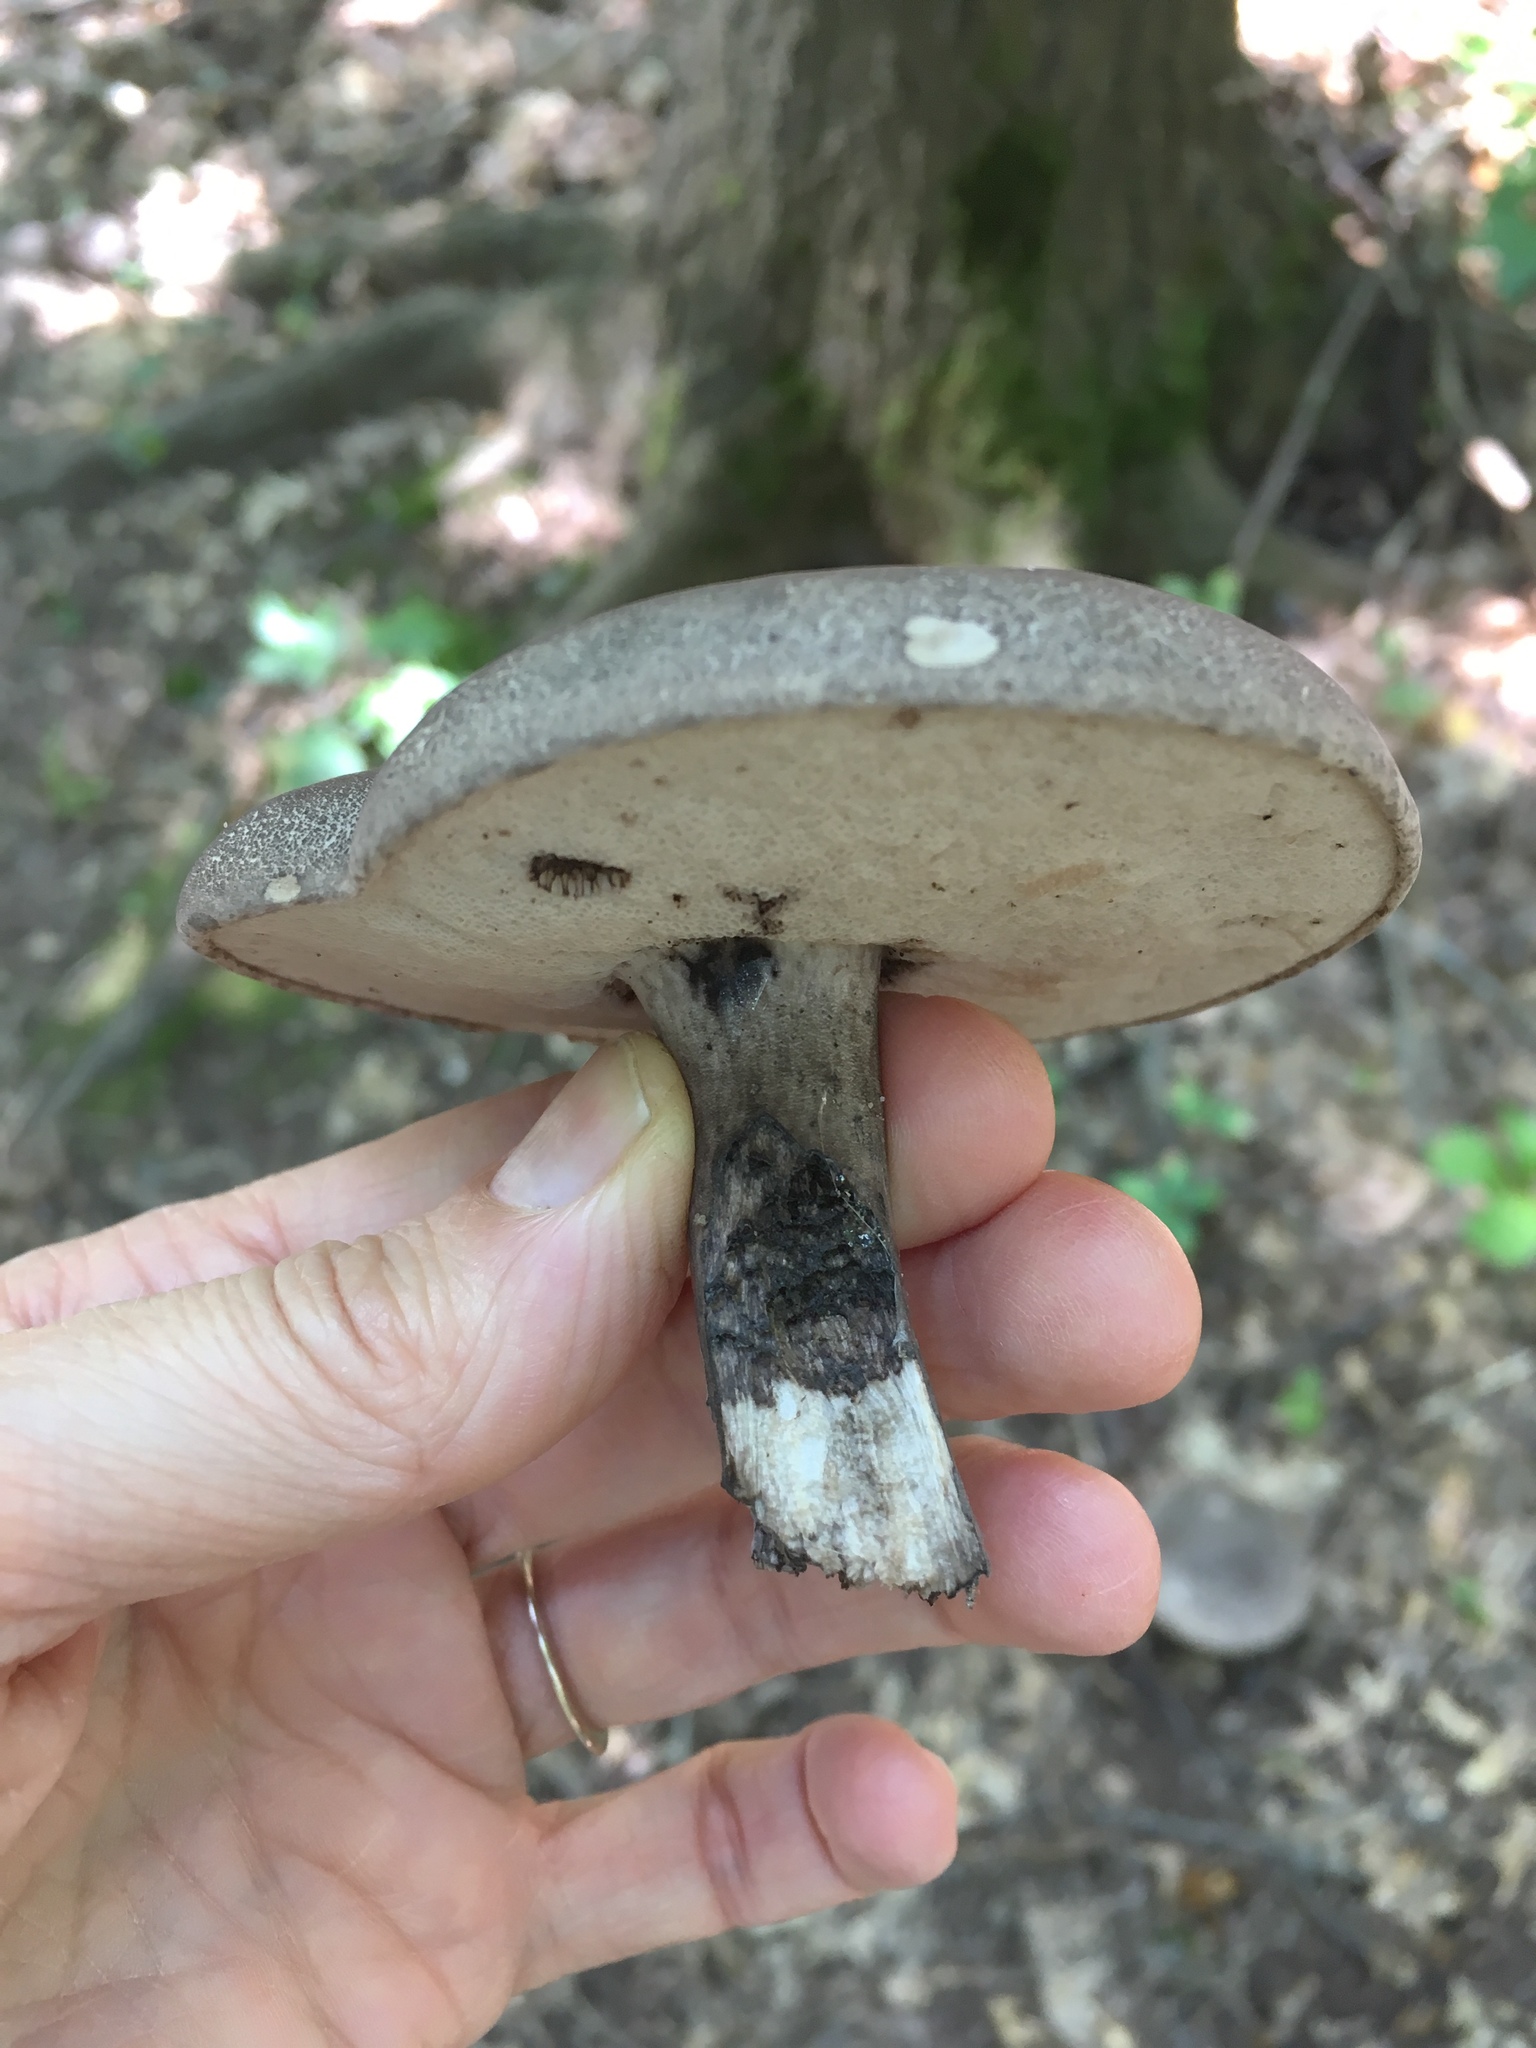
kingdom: Fungi
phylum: Basidiomycota
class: Agaricomycetes
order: Boletales
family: Boletaceae
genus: Tylopilus
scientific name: Tylopilus alboater
